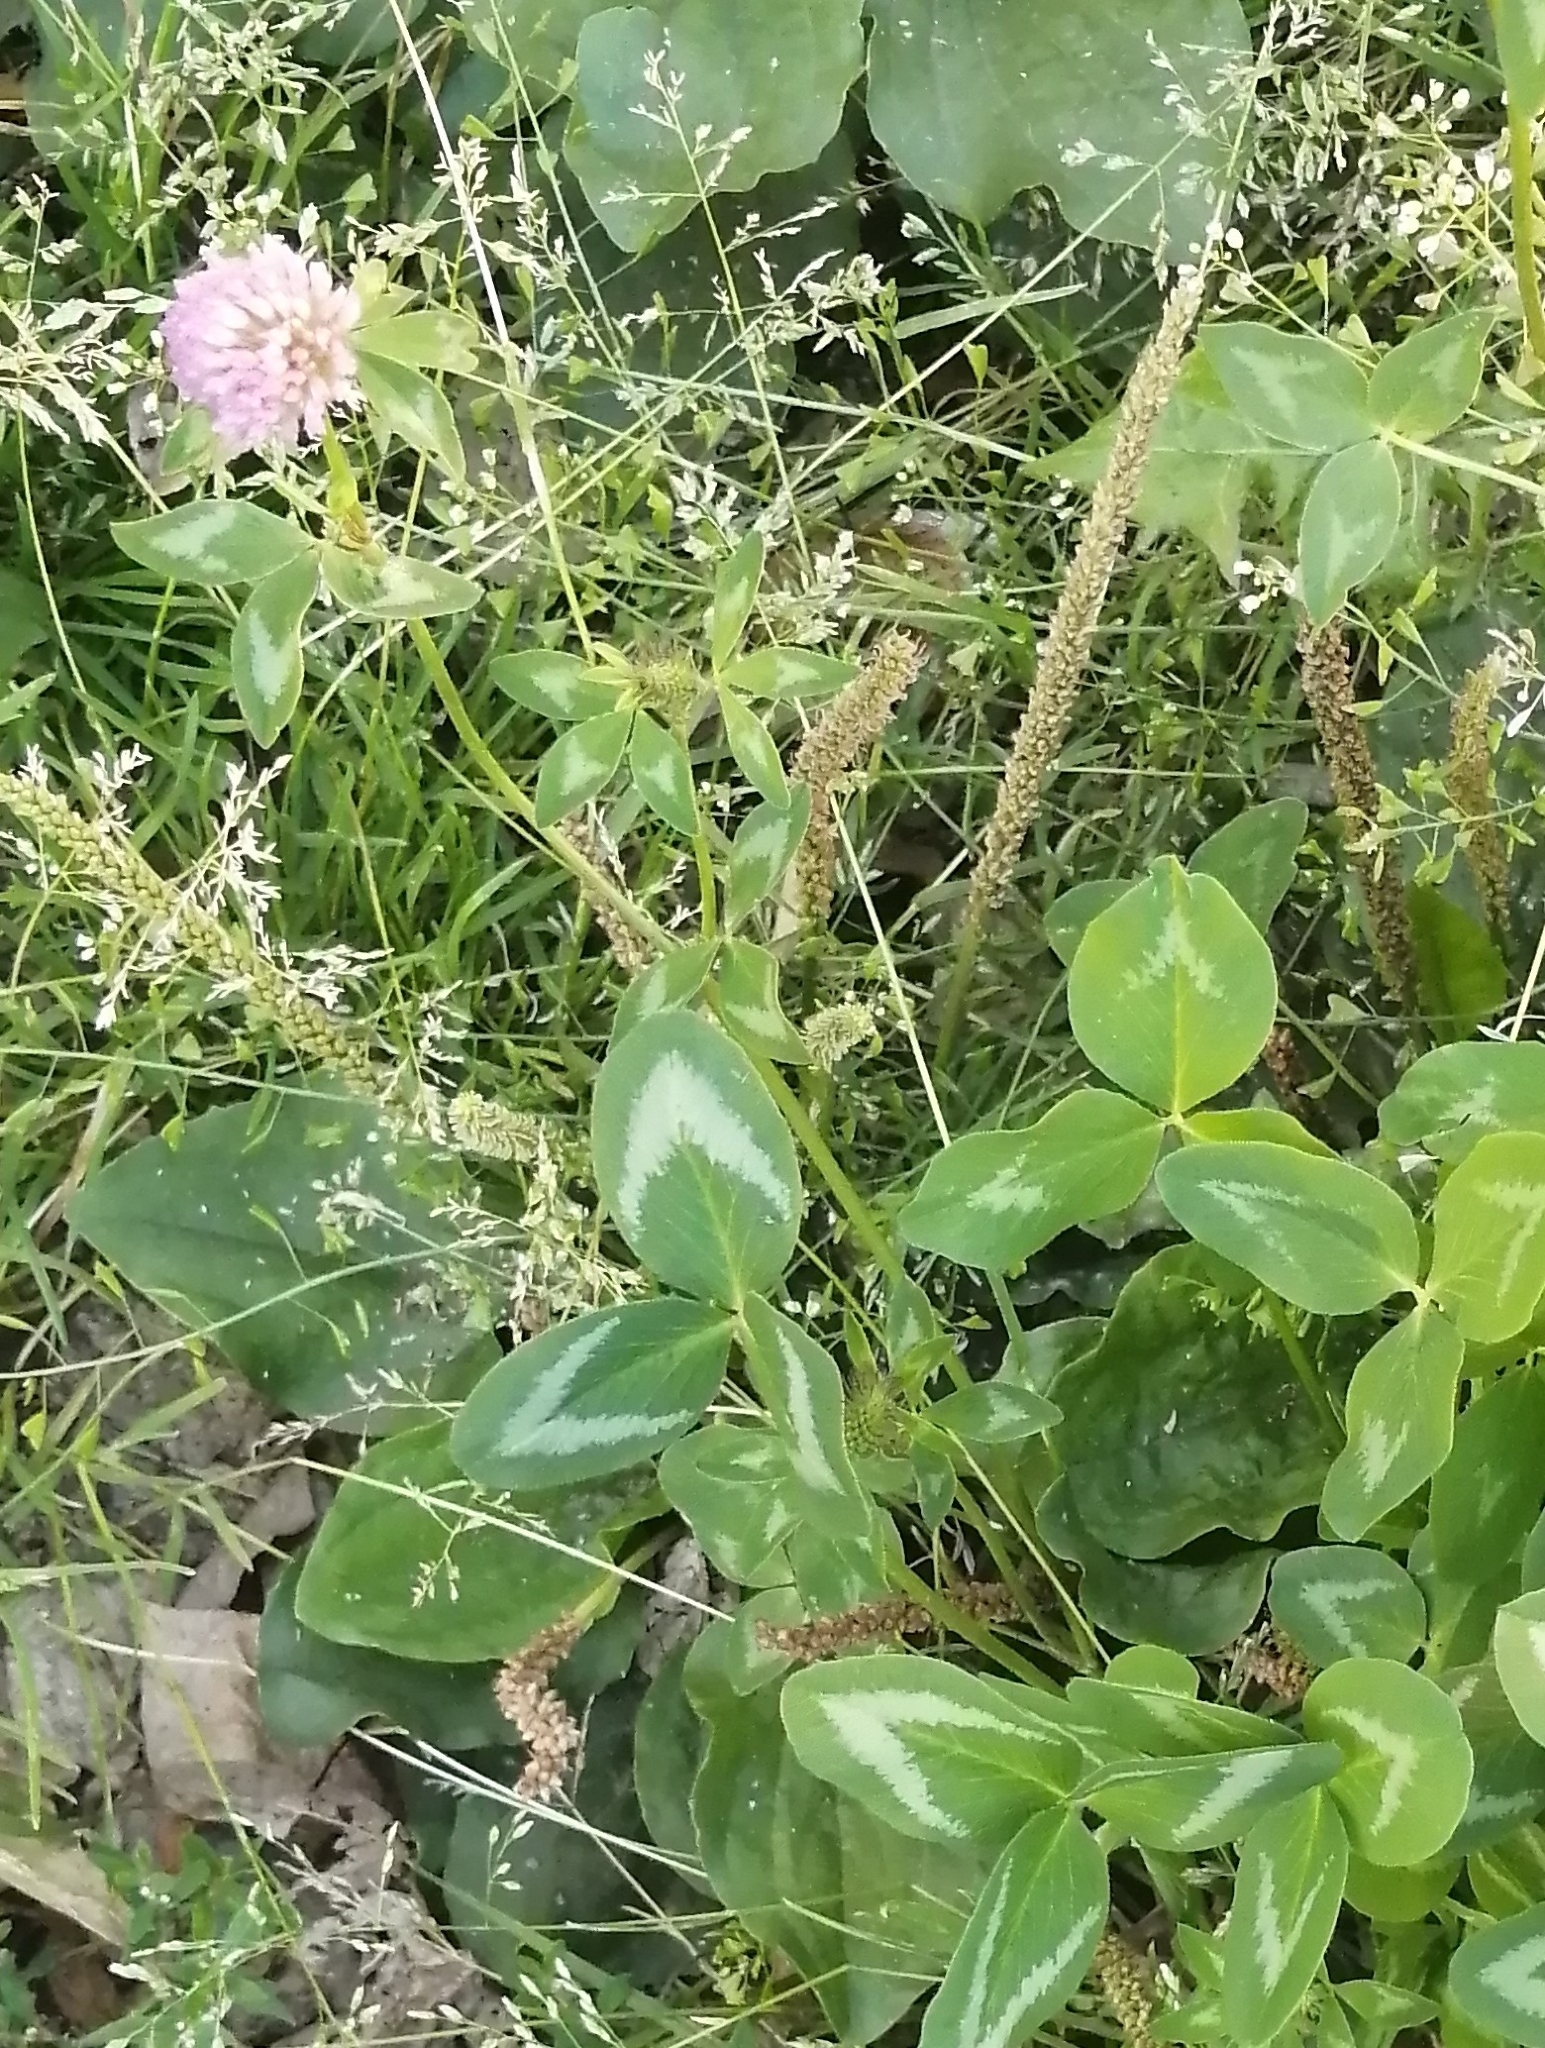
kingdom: Plantae
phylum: Tracheophyta
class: Magnoliopsida
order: Fabales
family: Fabaceae
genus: Trifolium
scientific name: Trifolium pratense
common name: Red clover
